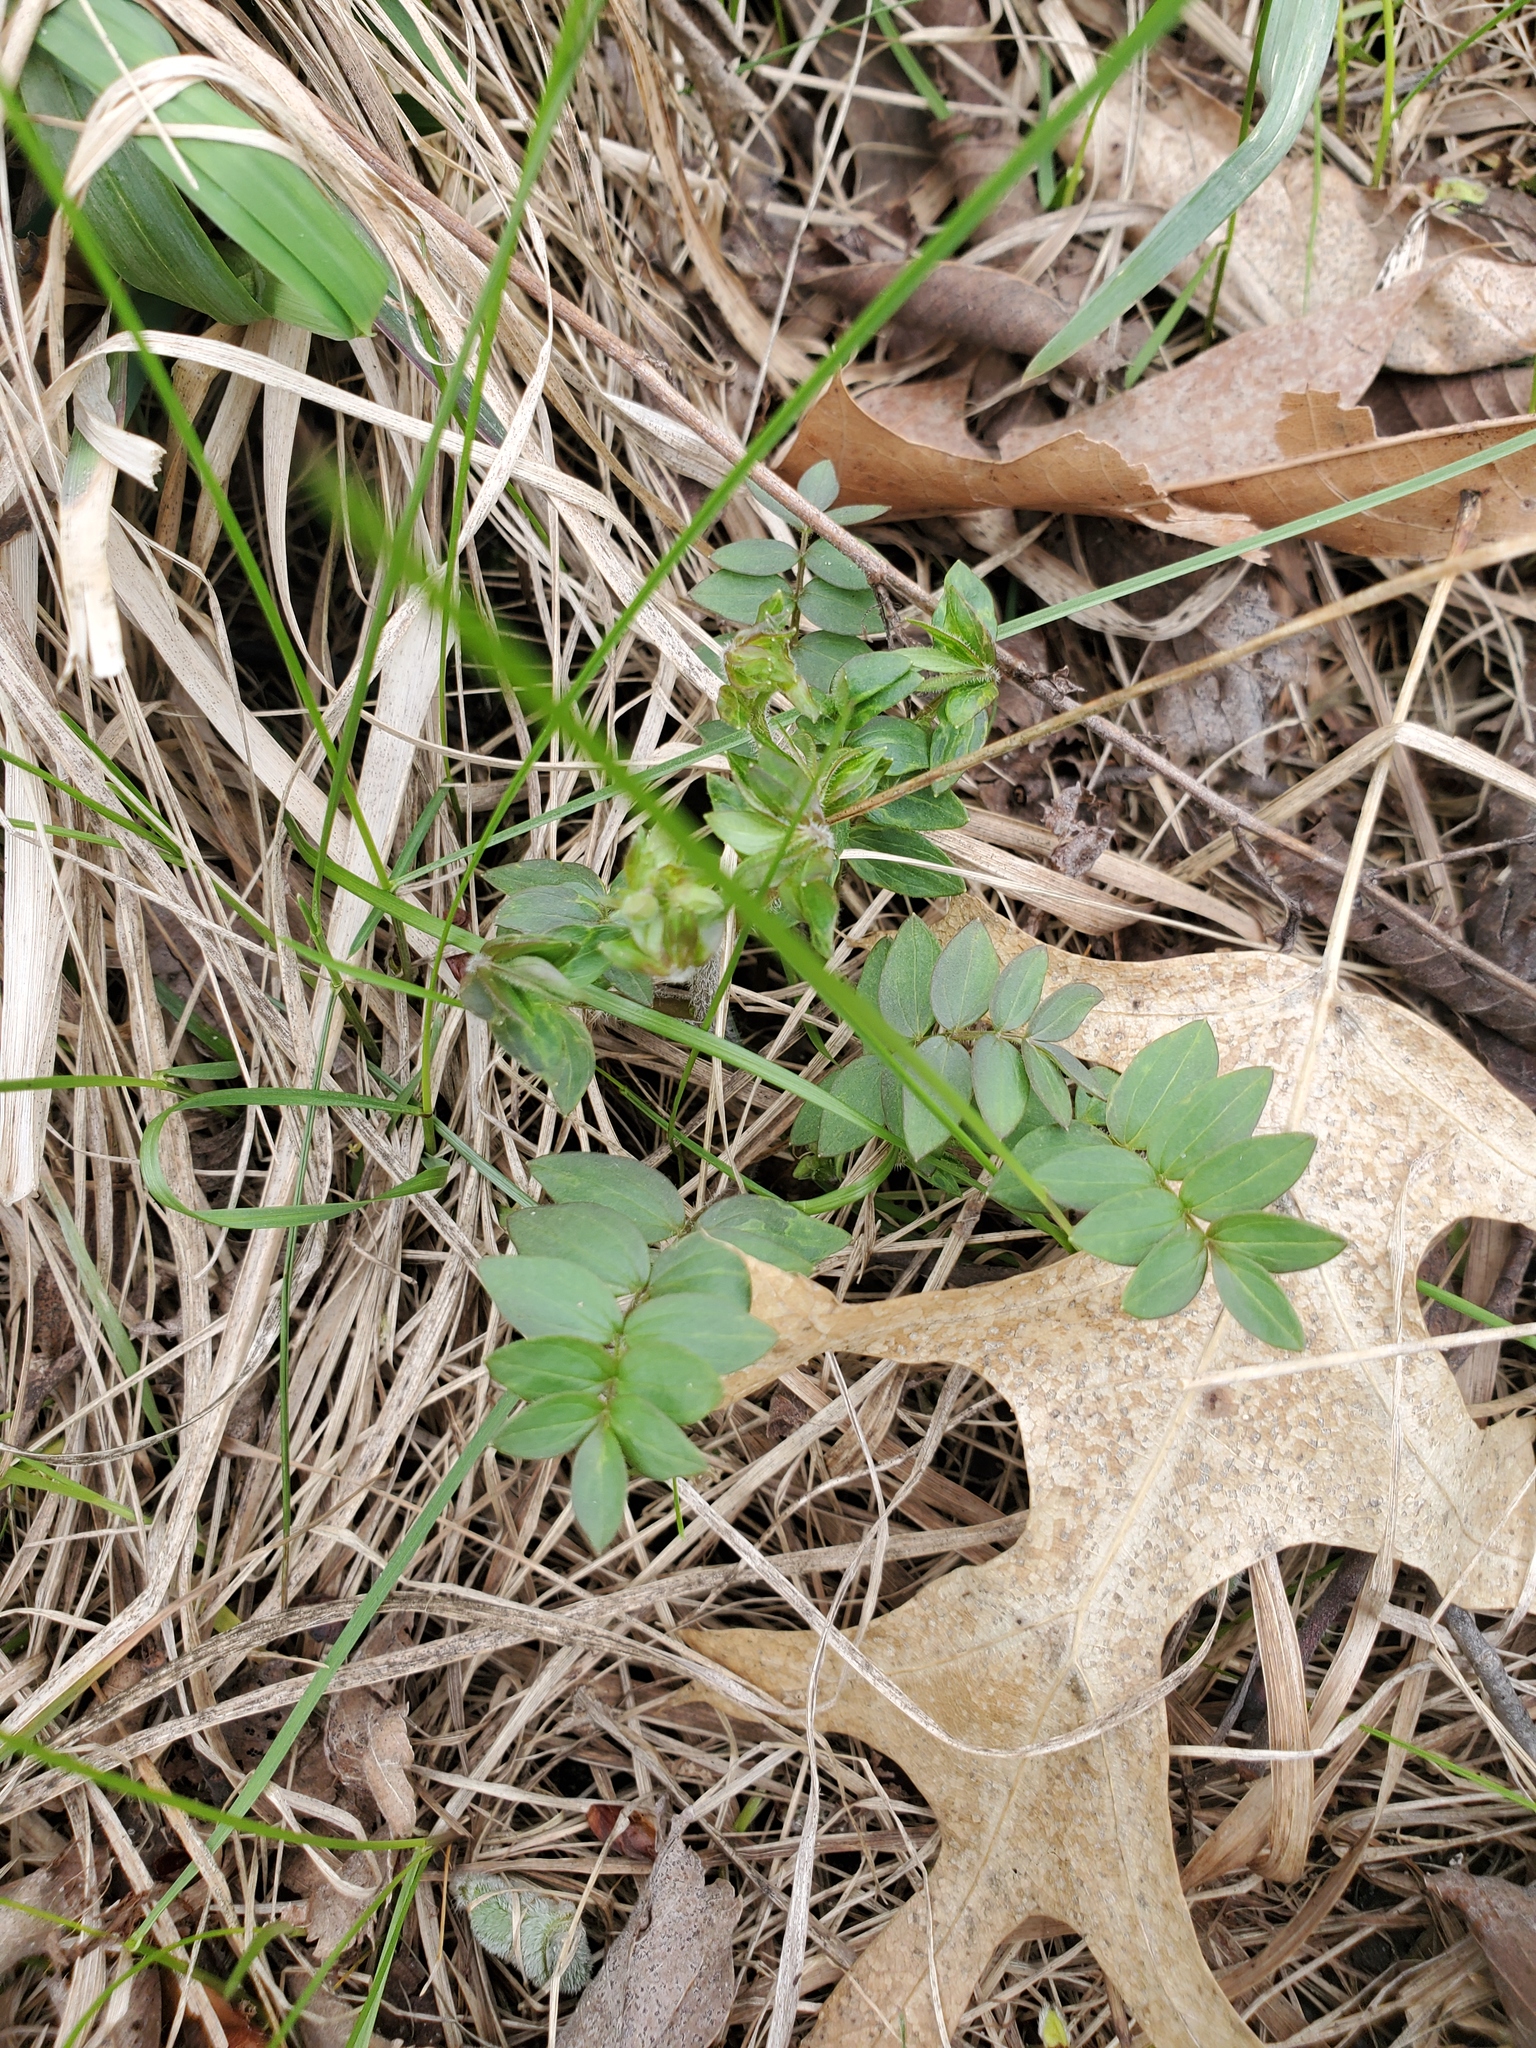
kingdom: Plantae
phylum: Tracheophyta
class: Magnoliopsida
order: Ericales
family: Polemoniaceae
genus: Polemonium
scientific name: Polemonium reptans
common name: Creeping jacob's-ladder
